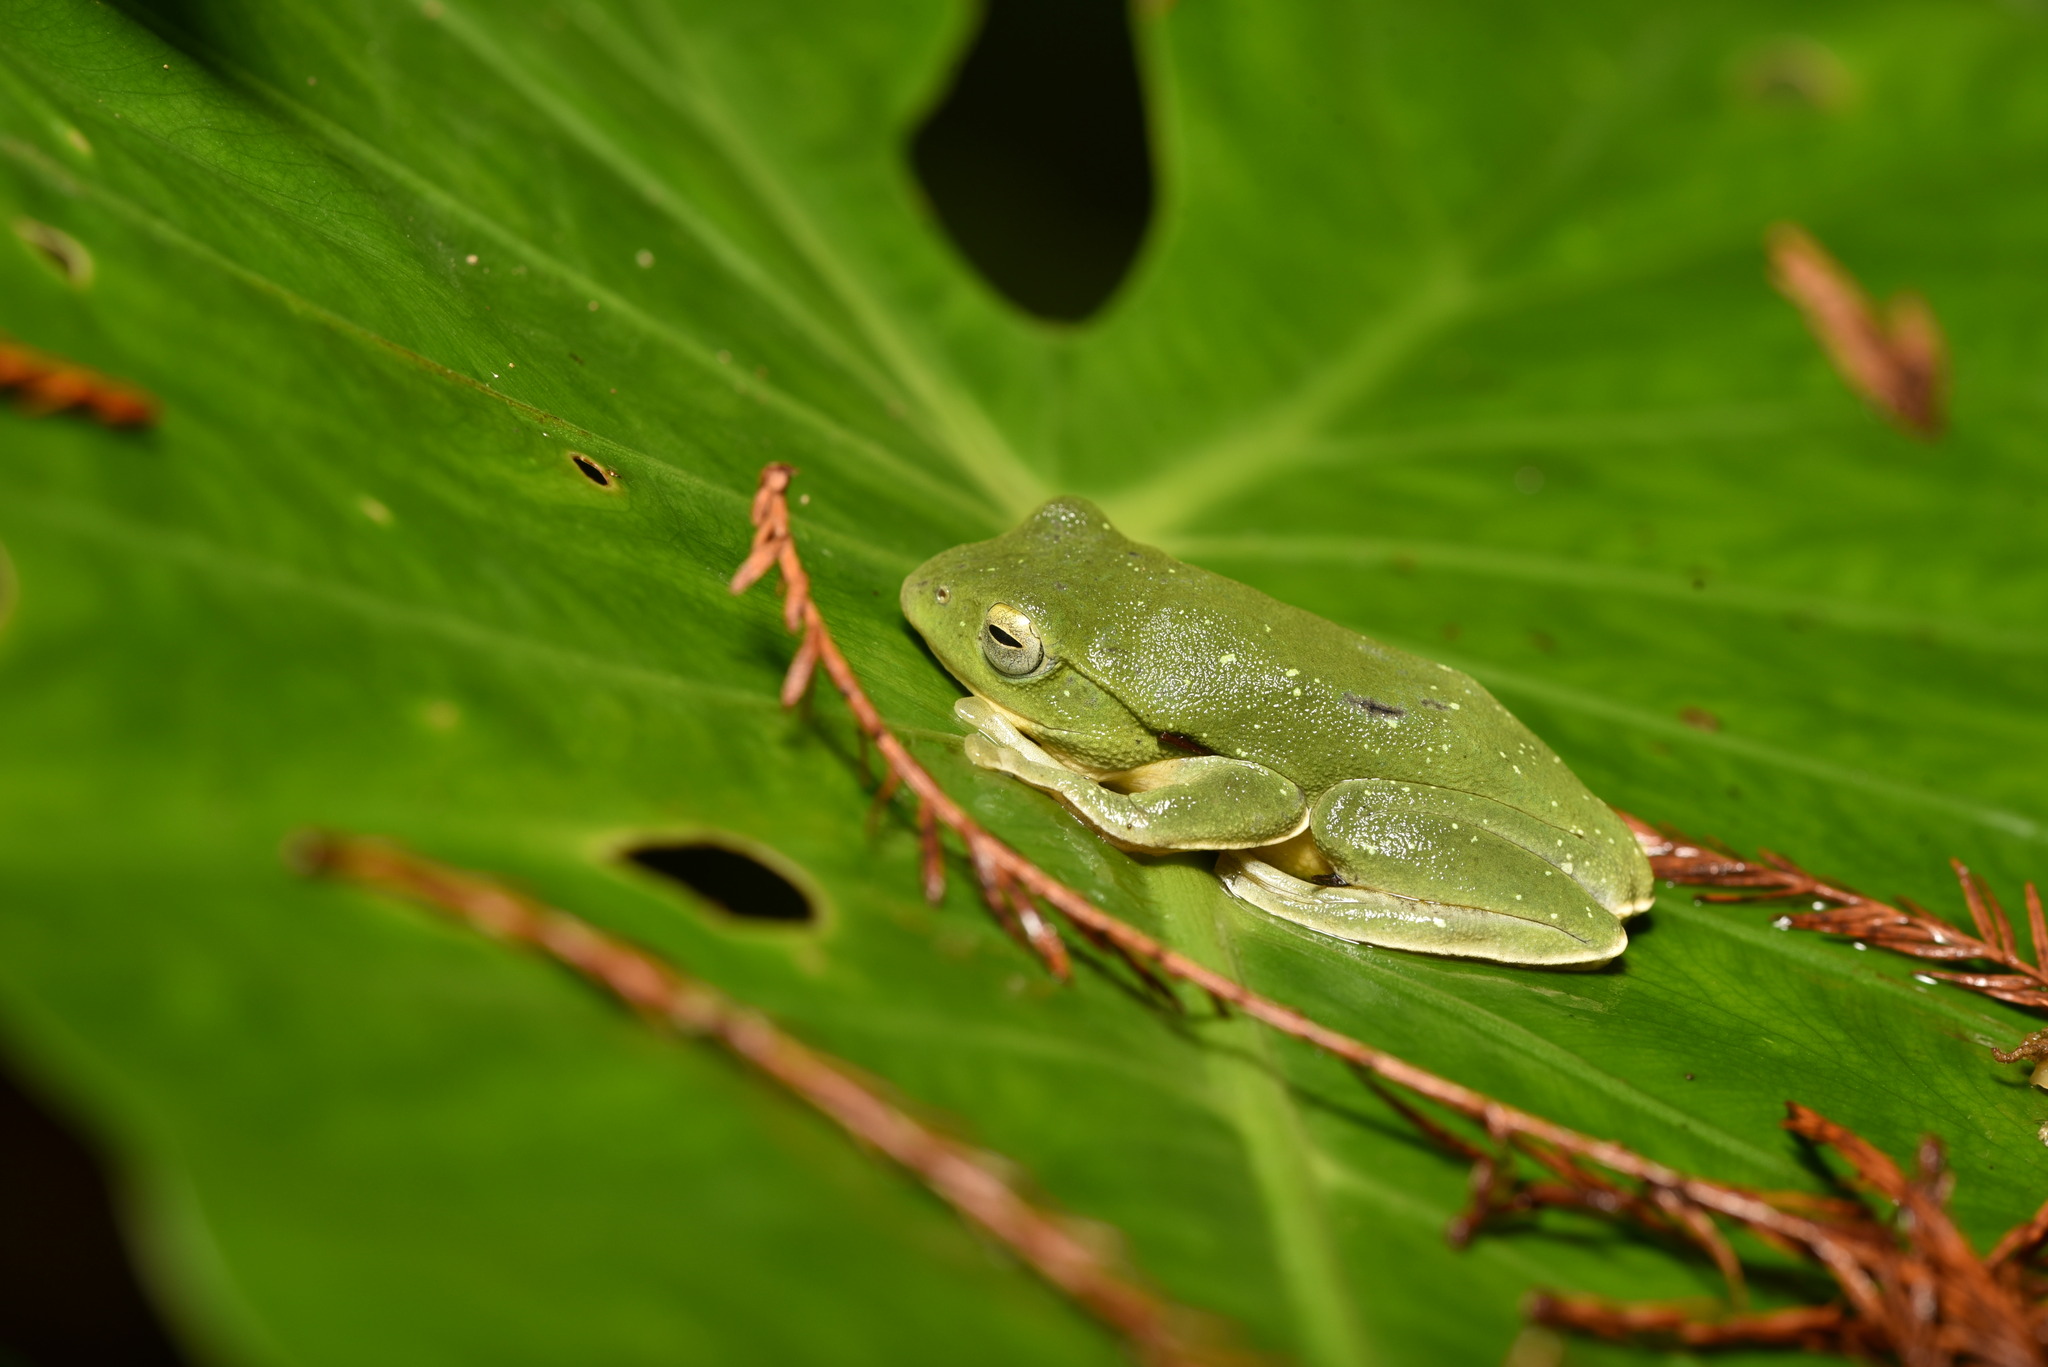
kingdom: Animalia
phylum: Chordata
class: Amphibia
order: Anura
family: Rhacophoridae
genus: Zhangixalus
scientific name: Zhangixalus taipeianus
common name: Taipei flying frog
